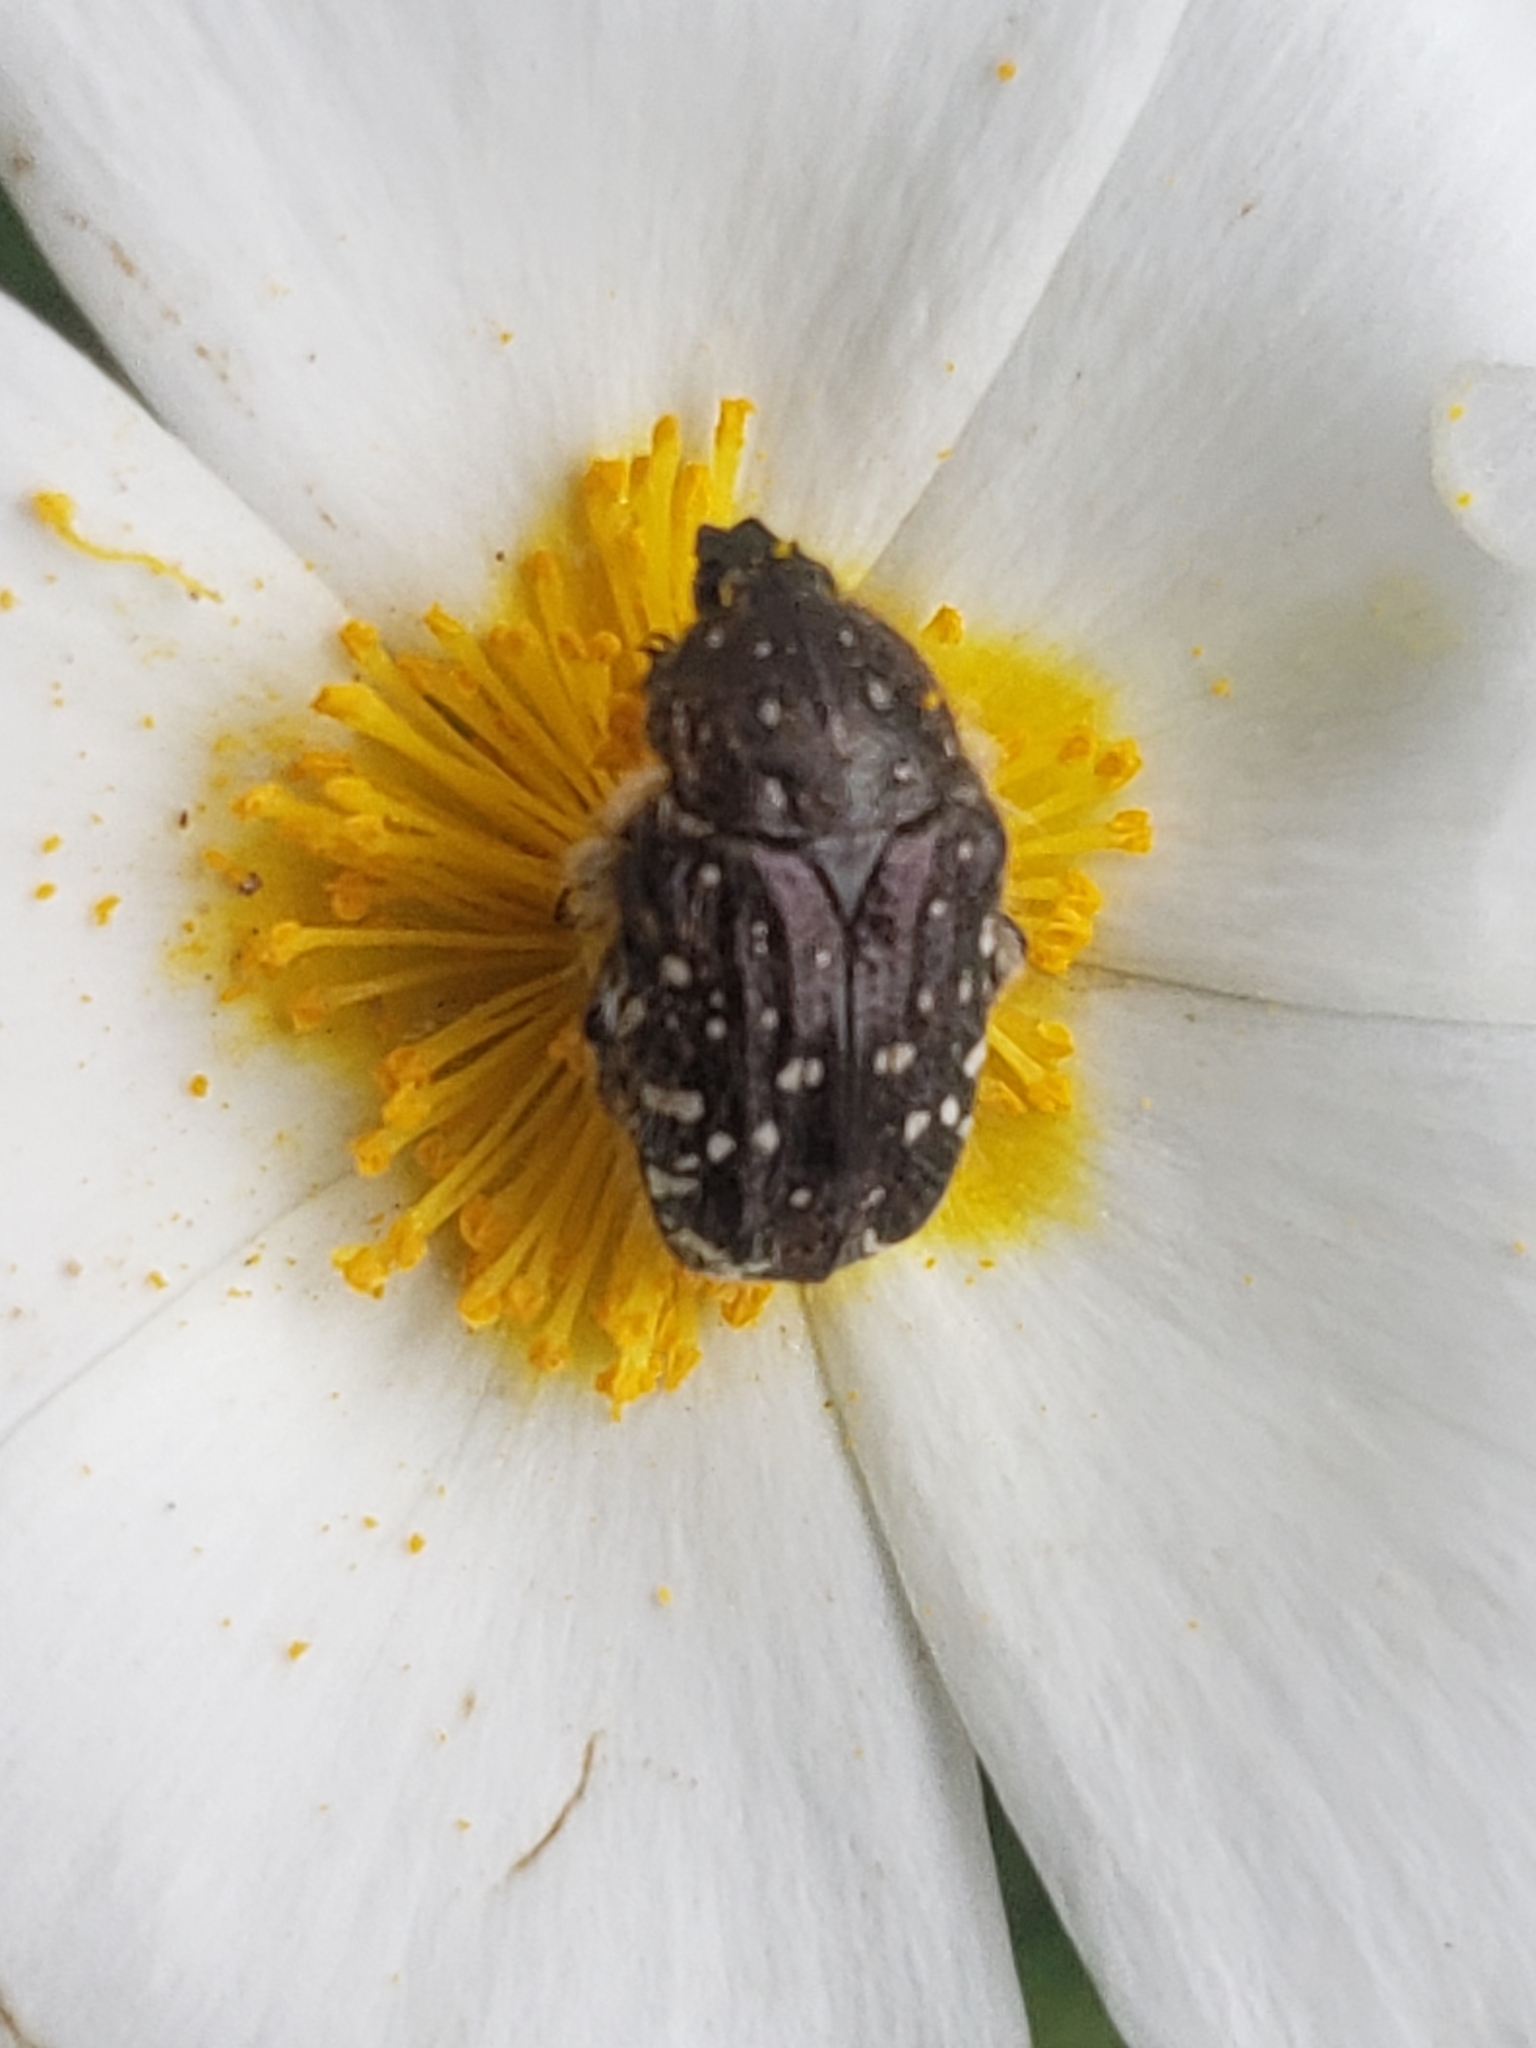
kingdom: Animalia
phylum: Arthropoda
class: Insecta
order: Coleoptera
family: Scarabaeidae
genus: Oxythyrea
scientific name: Oxythyrea funesta
